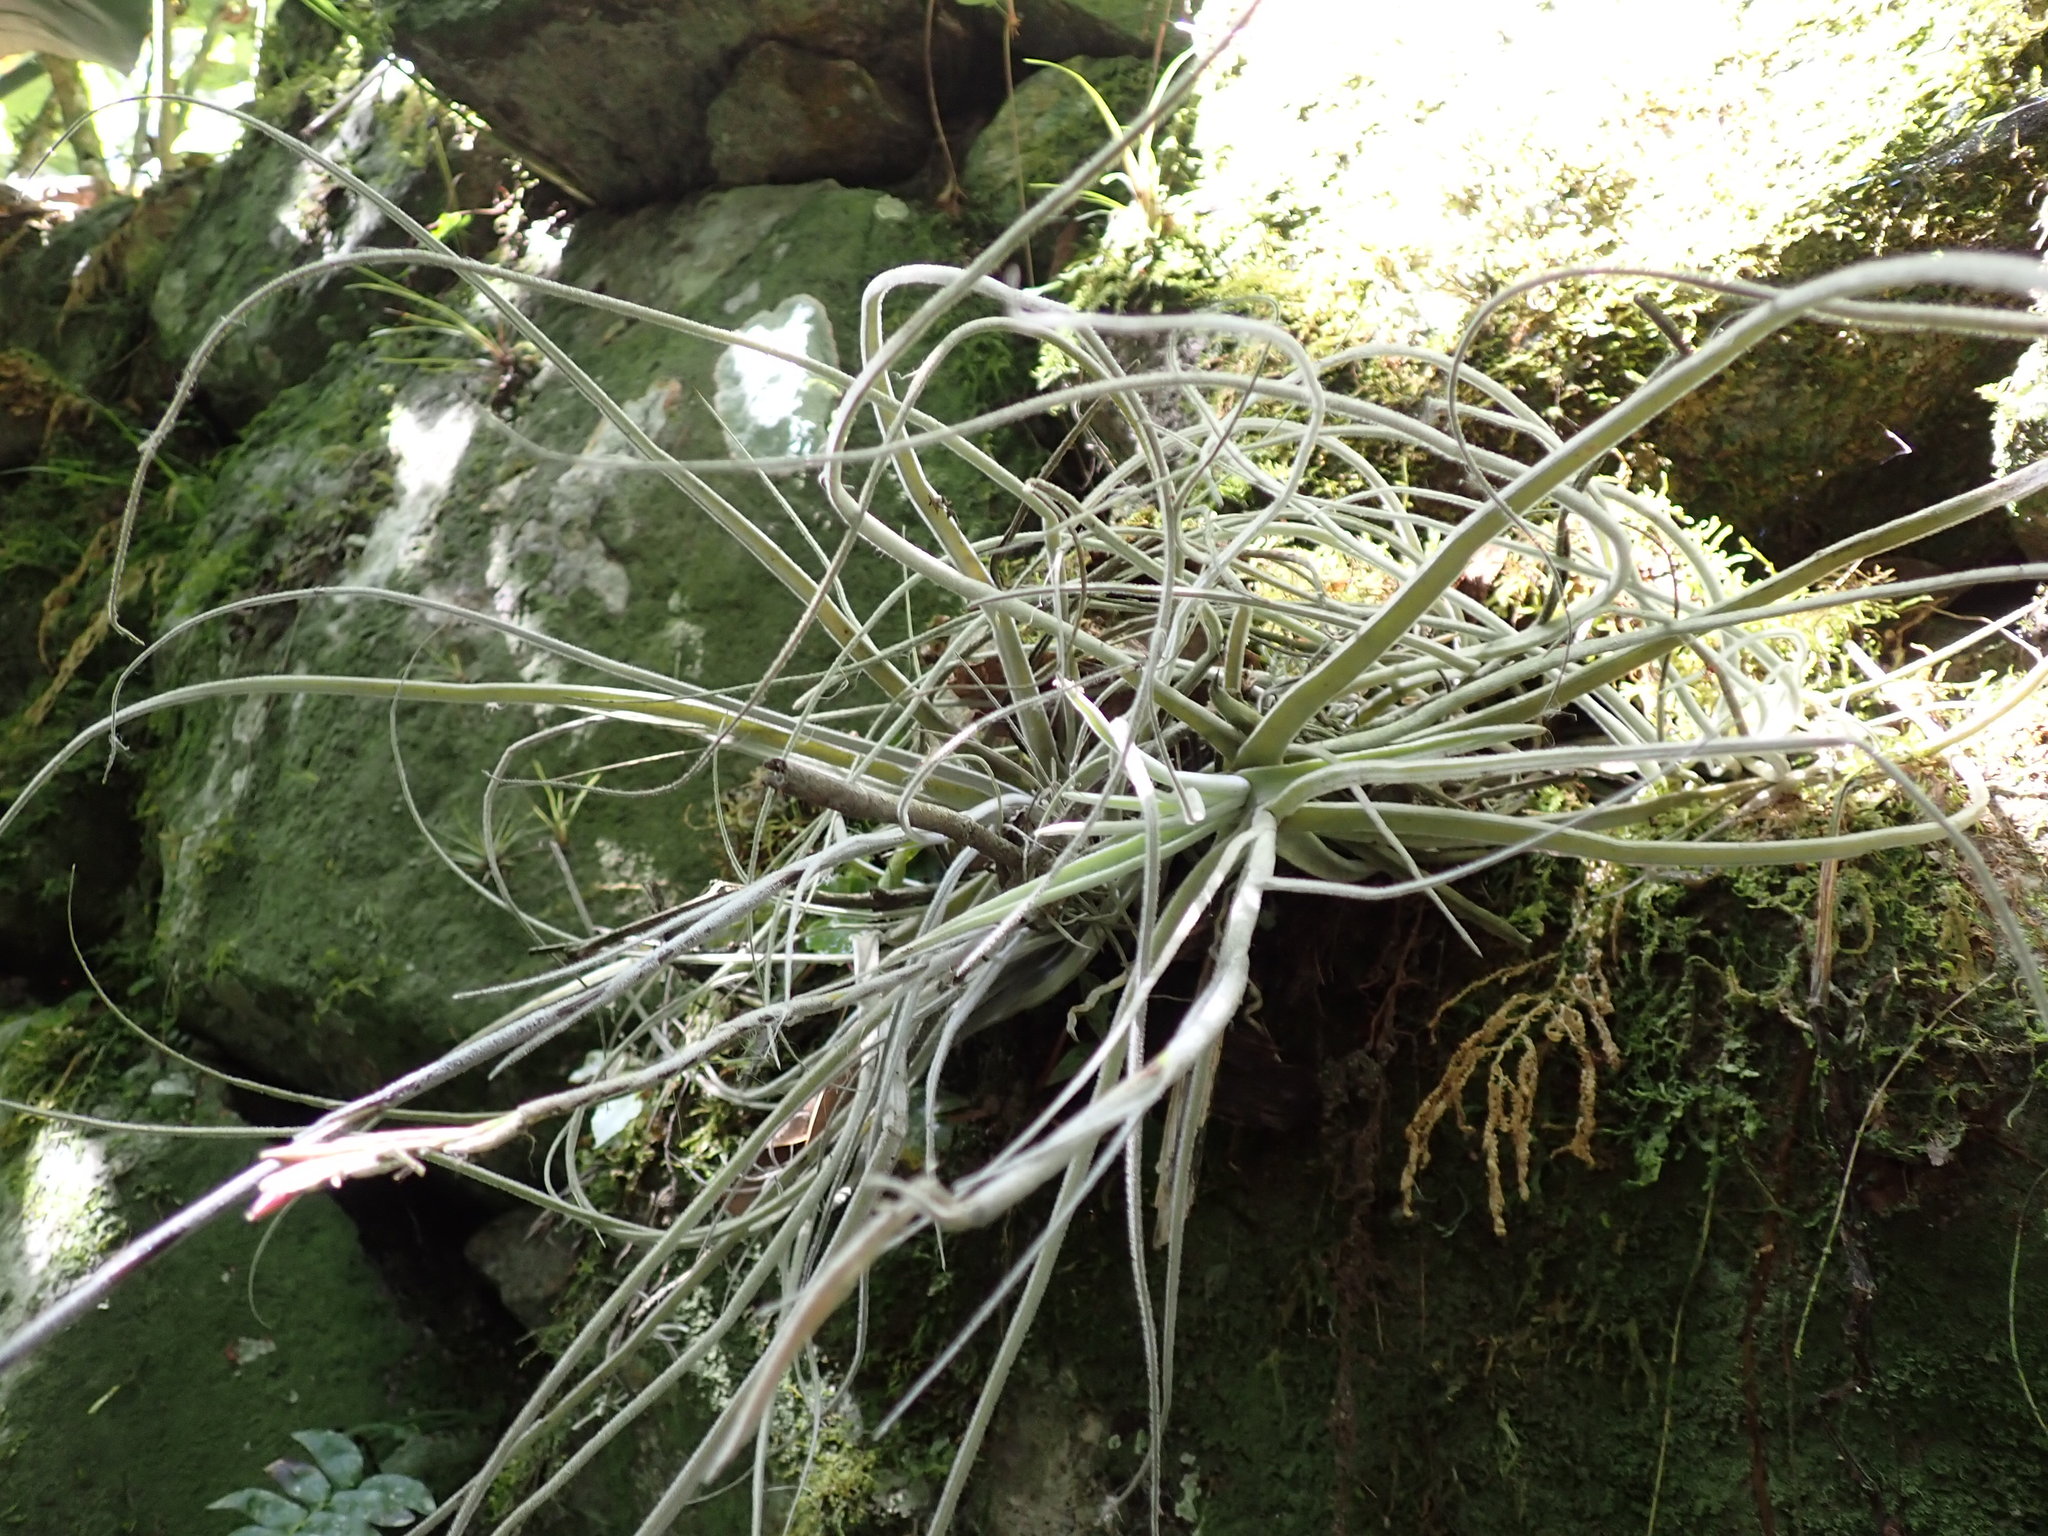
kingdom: Plantae
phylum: Tracheophyta
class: Liliopsida
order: Poales
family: Bromeliaceae
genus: Tillandsia
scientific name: Tillandsia streptocarpa
